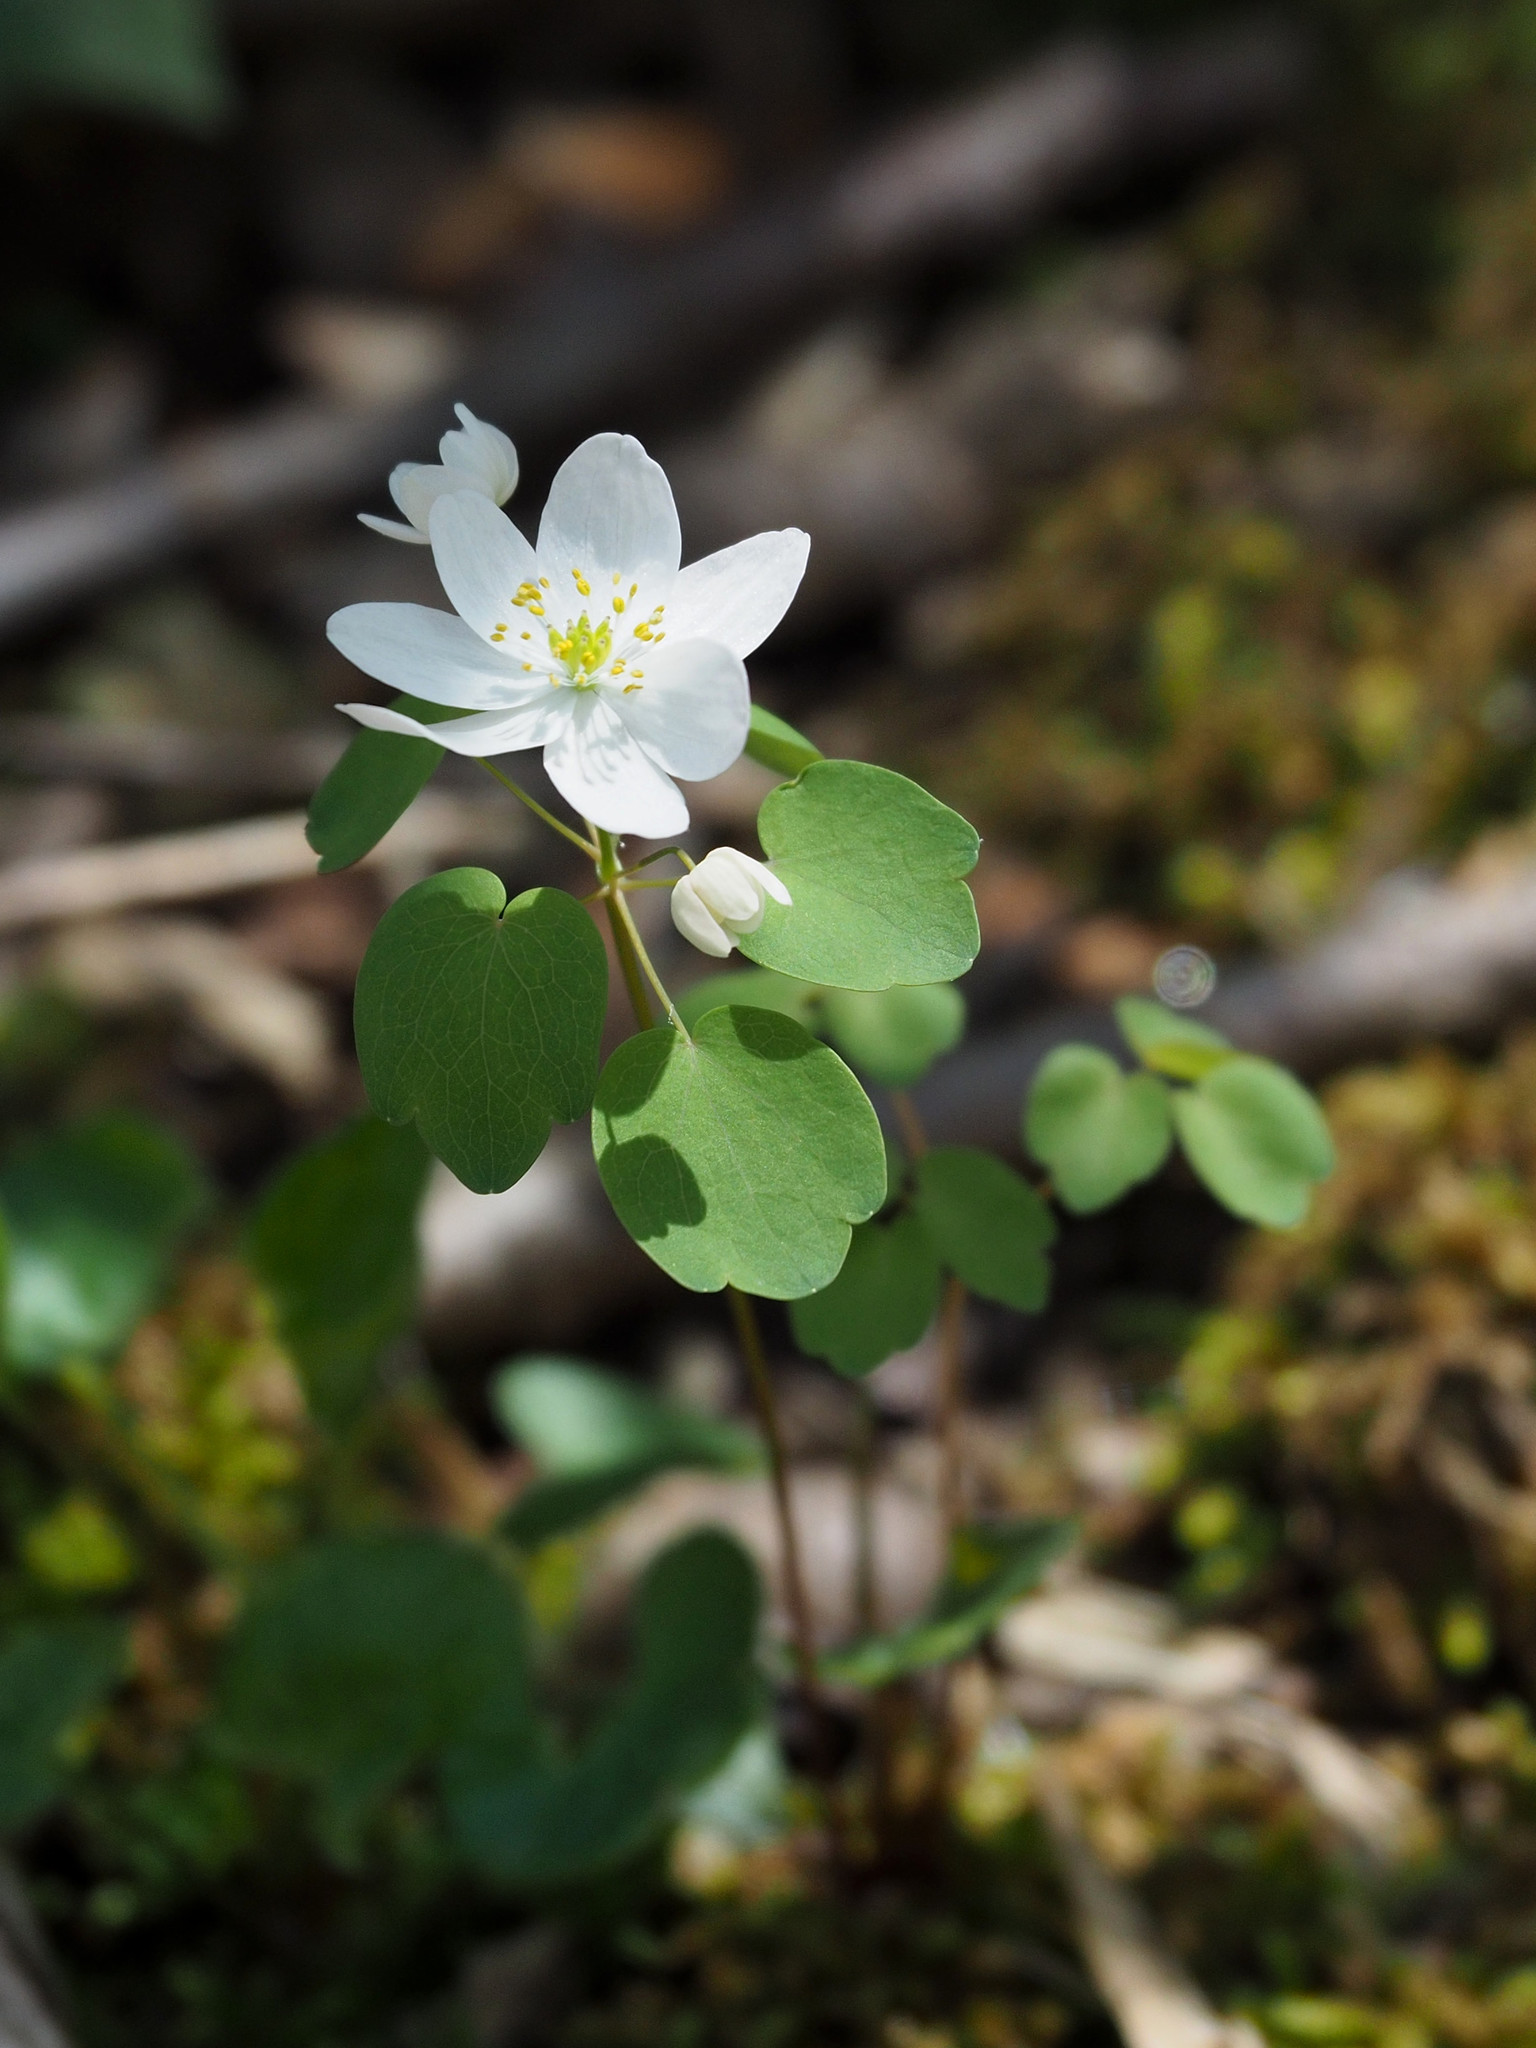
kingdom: Plantae
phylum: Tracheophyta
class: Magnoliopsida
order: Ranunculales
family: Ranunculaceae
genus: Thalictrum
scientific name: Thalictrum thalictroides
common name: Rue-anemone
